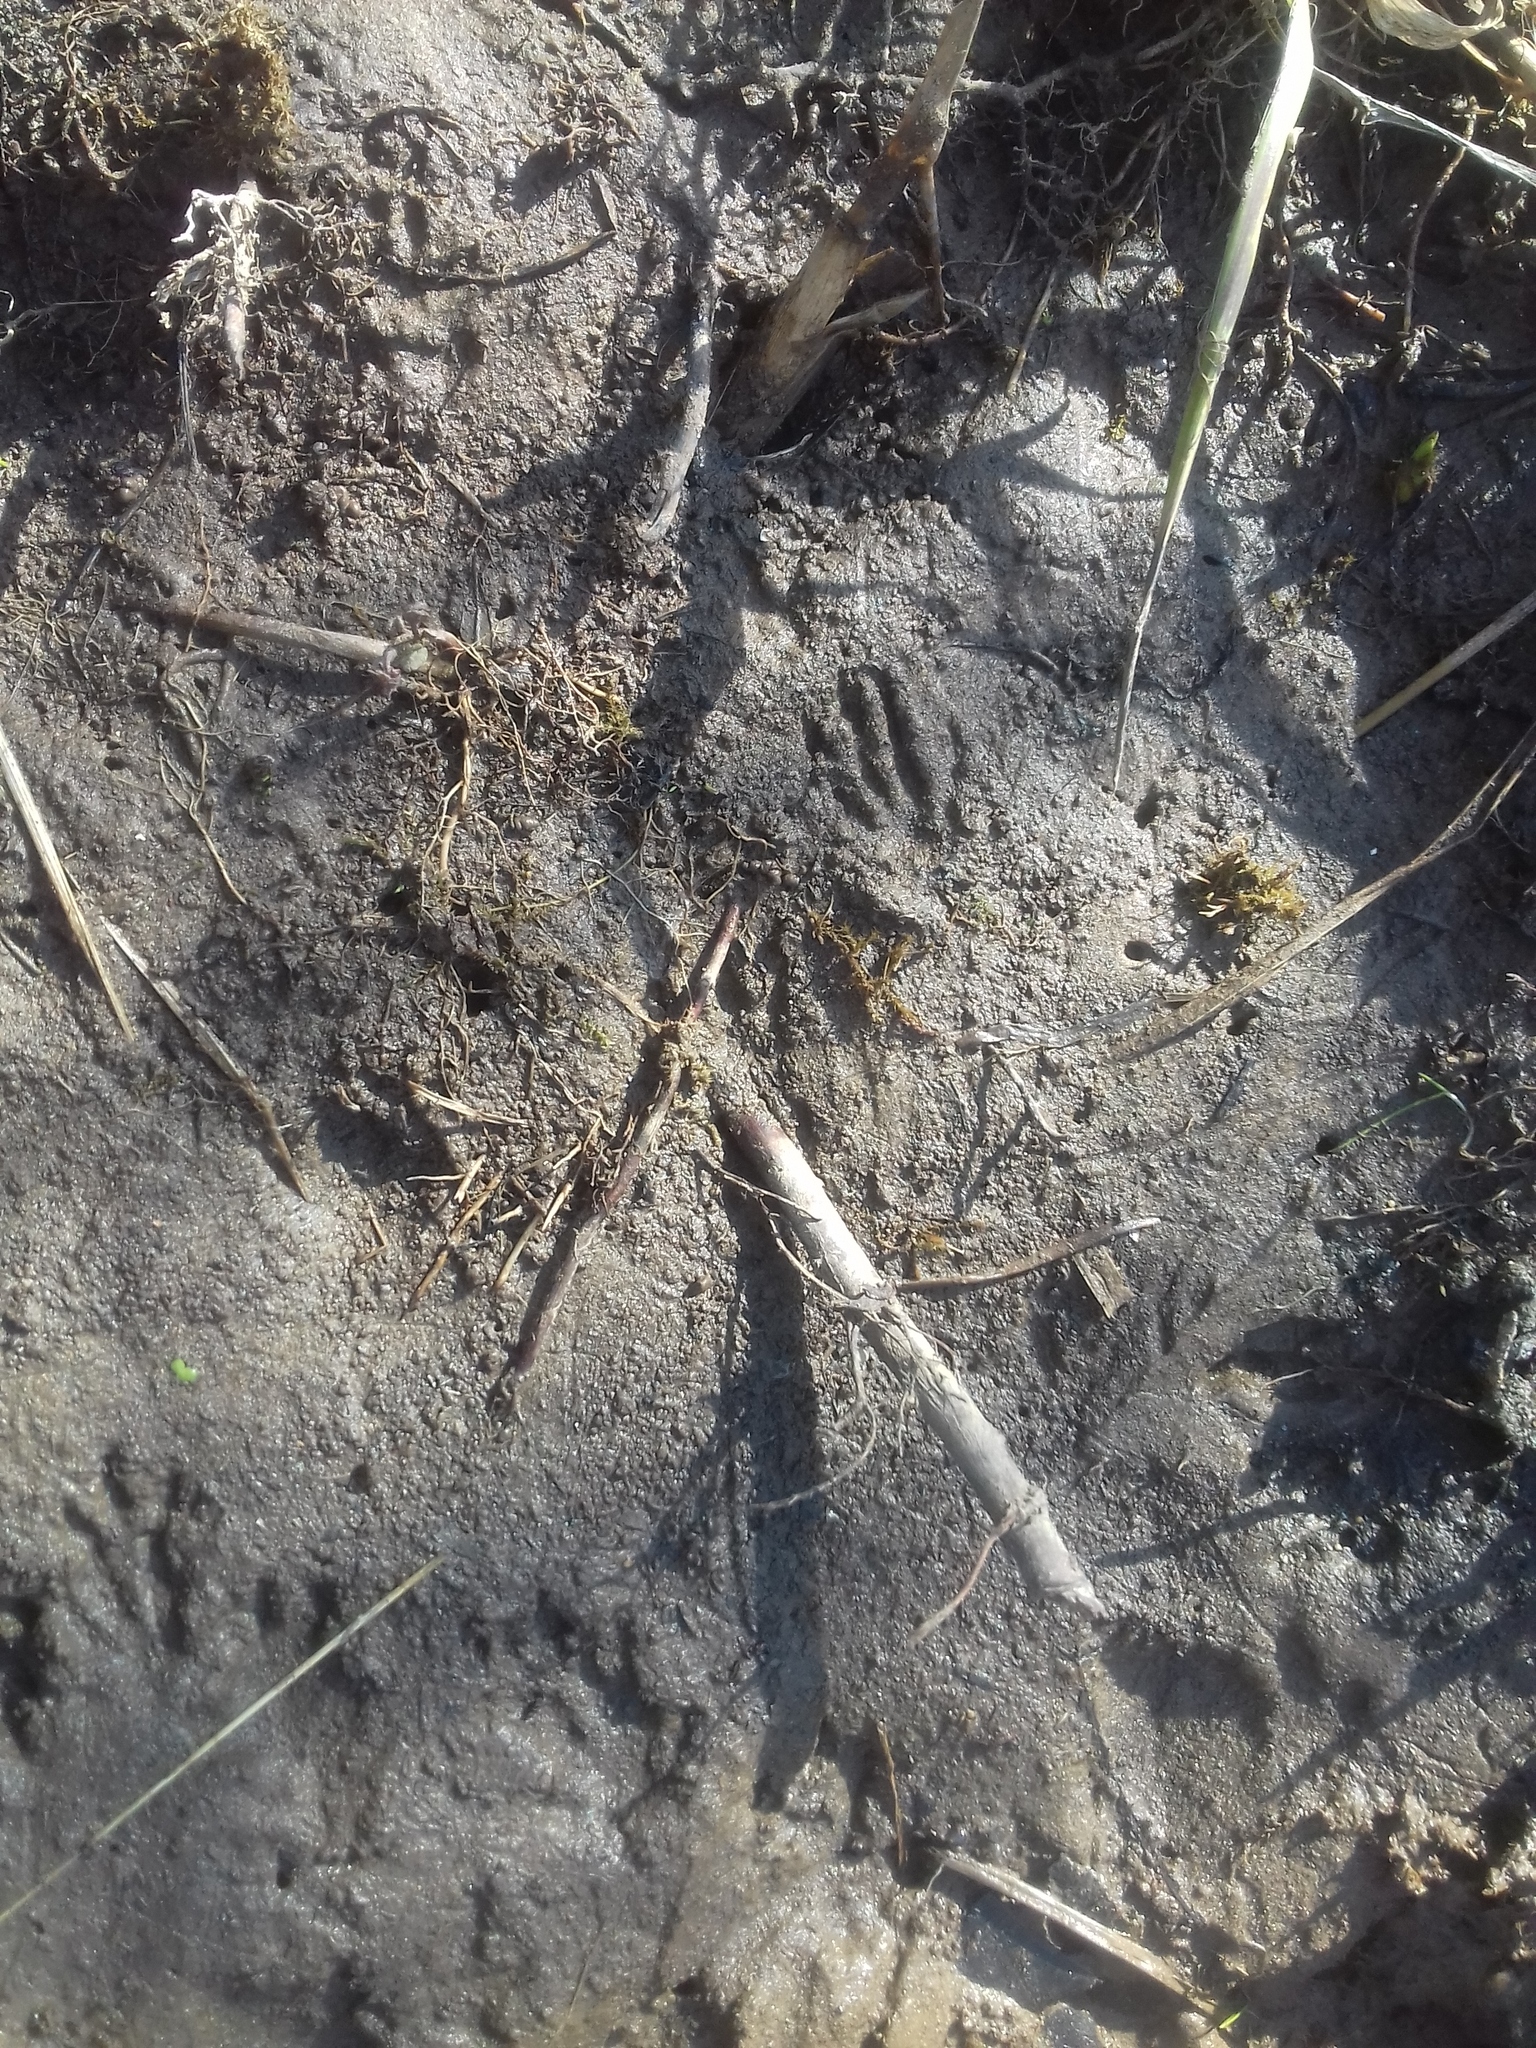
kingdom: Animalia
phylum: Chordata
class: Mammalia
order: Rodentia
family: Cricetidae
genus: Ondatra
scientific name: Ondatra zibethicus
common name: Muskrat
